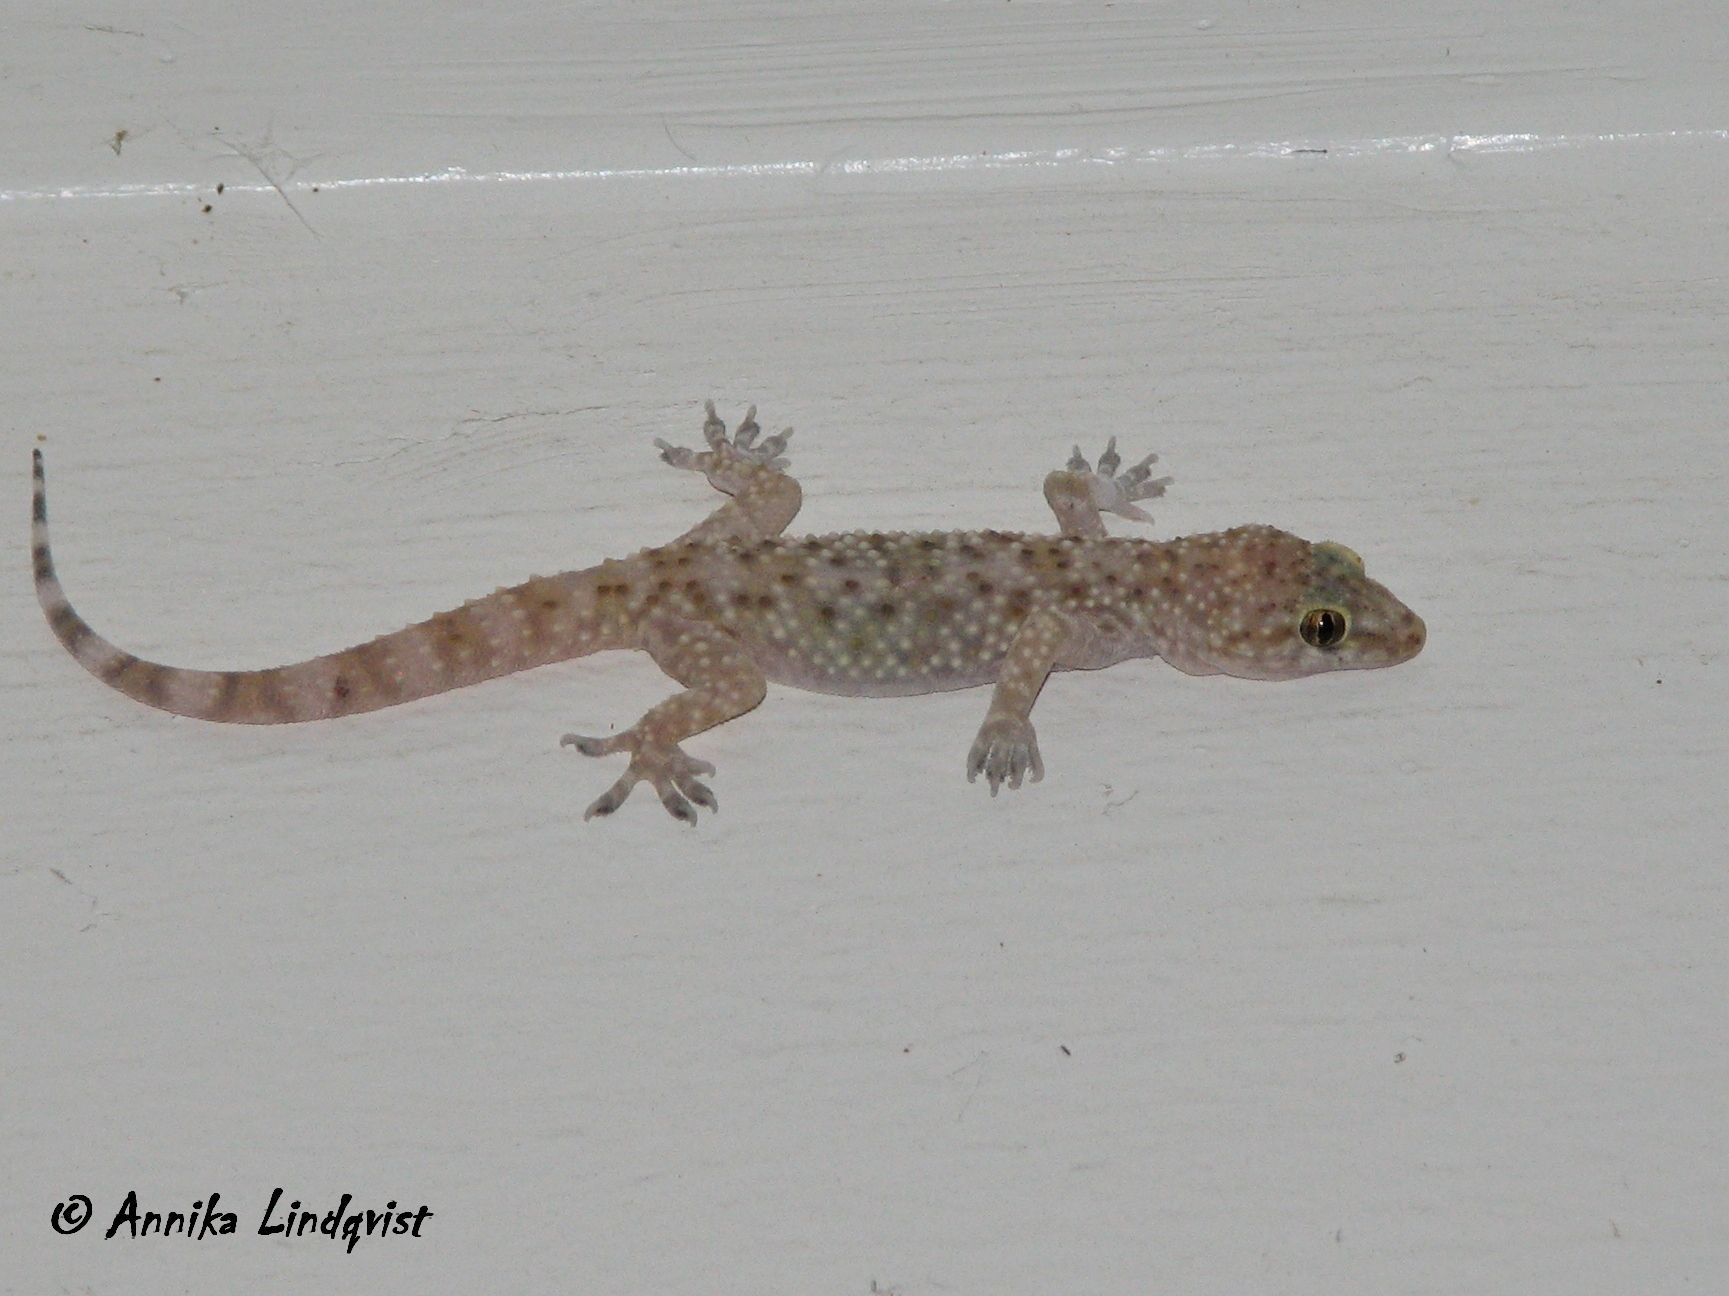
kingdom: Animalia
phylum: Chordata
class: Squamata
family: Gekkonidae
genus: Hemidactylus
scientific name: Hemidactylus turcicus
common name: Turkish gecko
